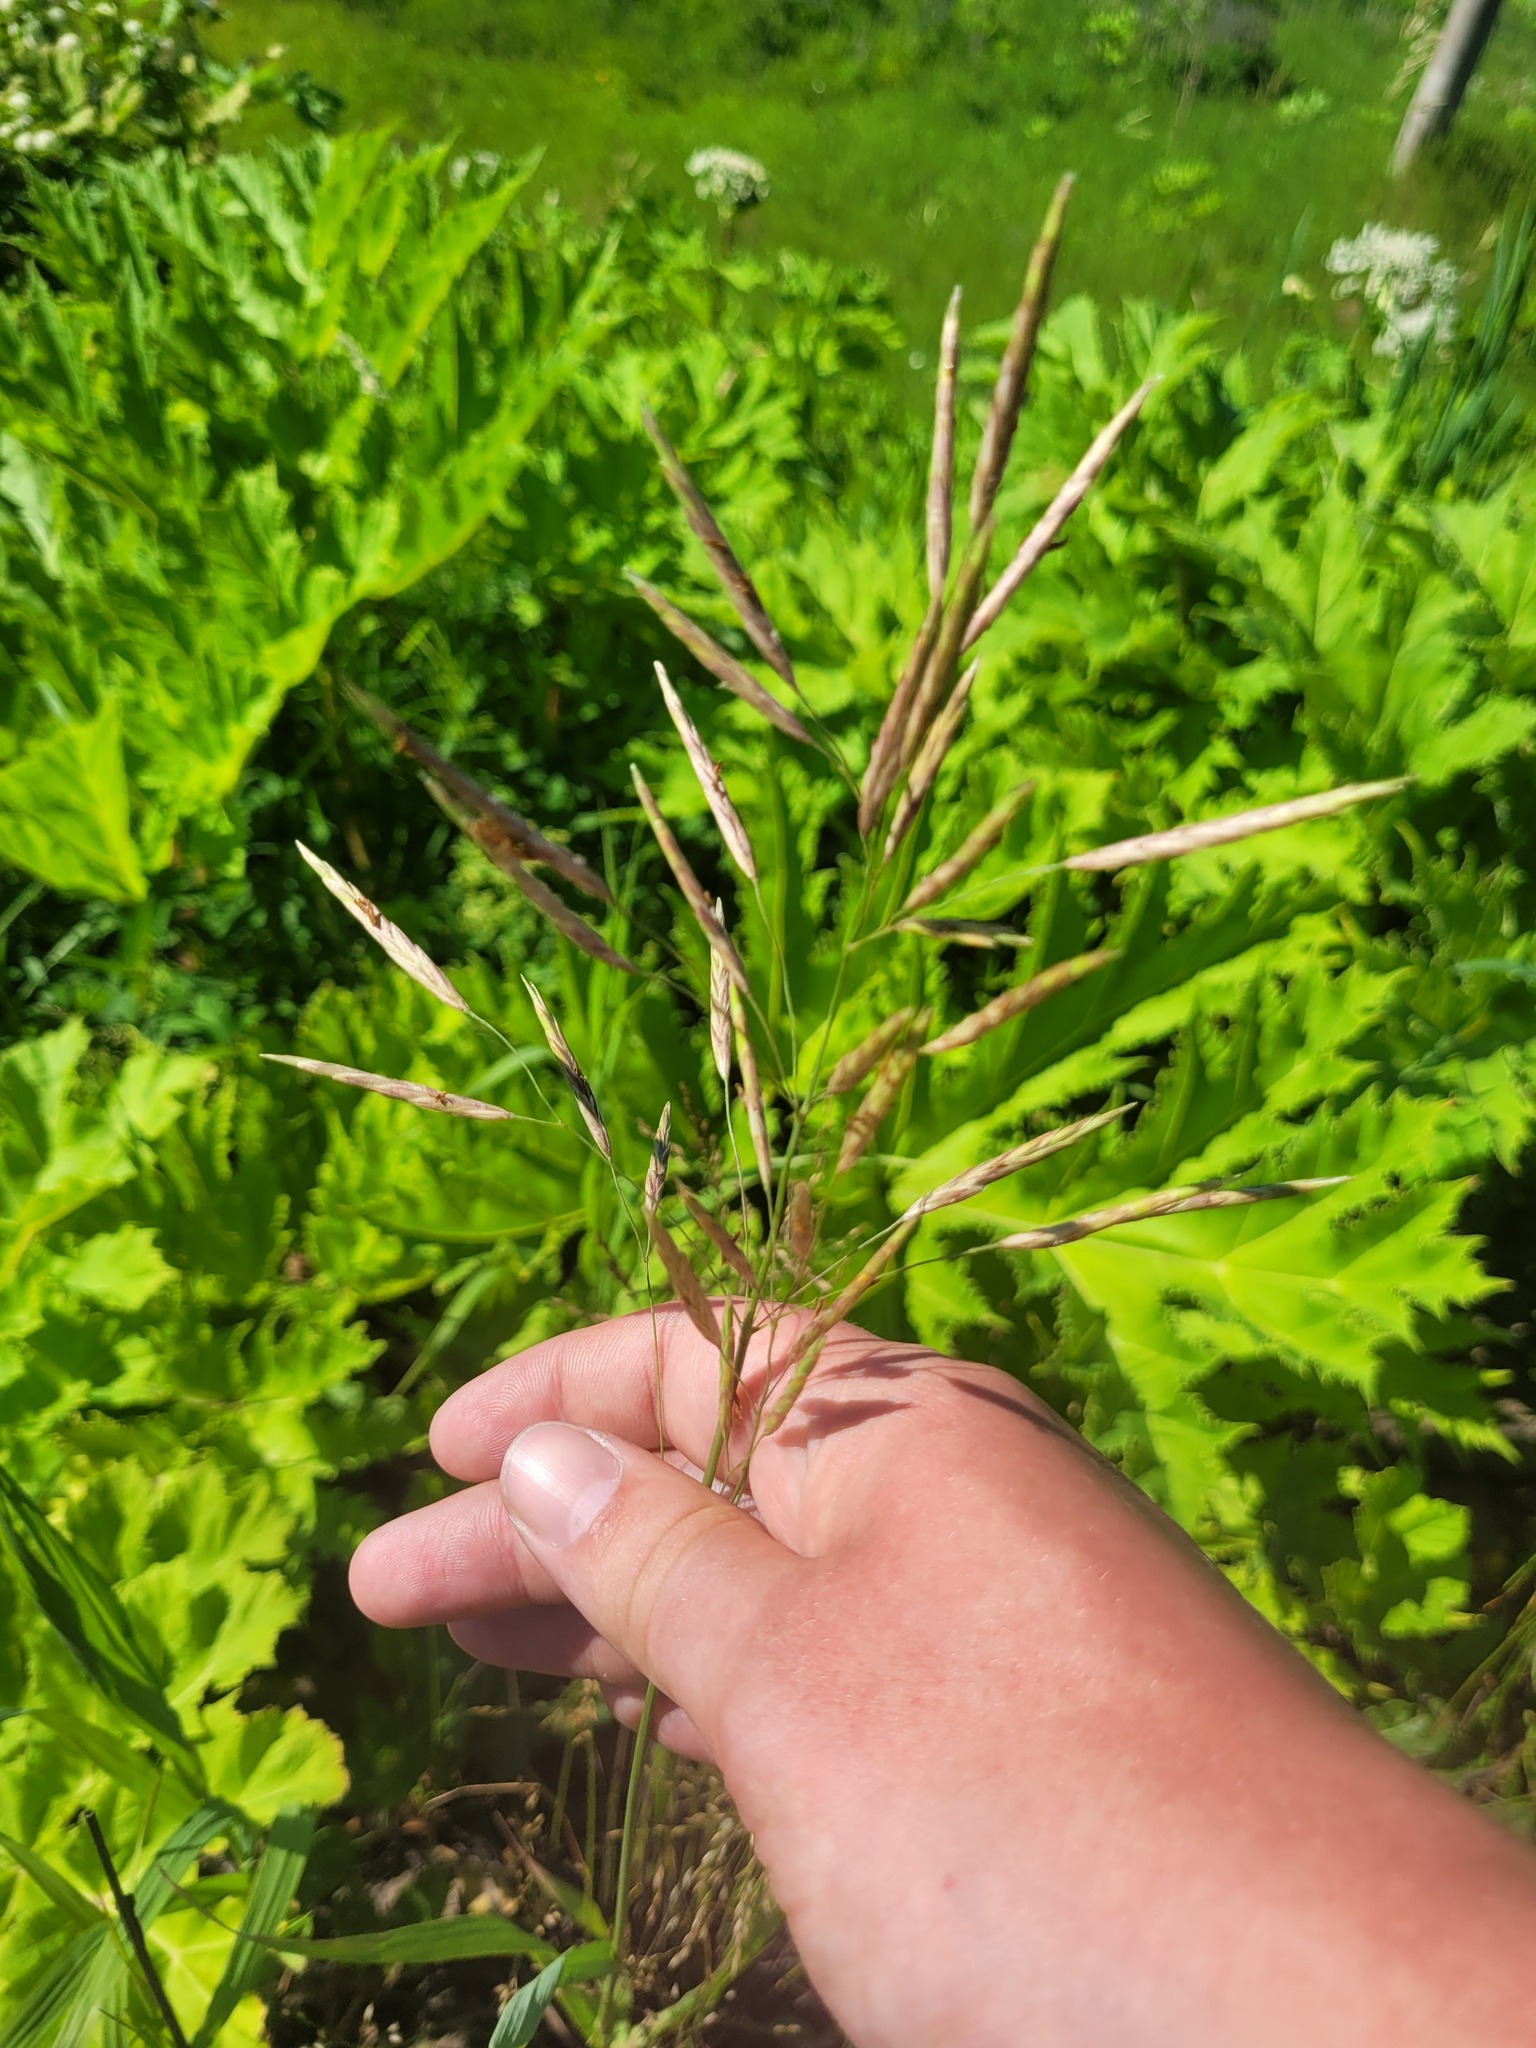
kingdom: Plantae
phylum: Tracheophyta
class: Liliopsida
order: Poales
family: Poaceae
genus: Bromus
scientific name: Bromus inermis
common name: Smooth brome
